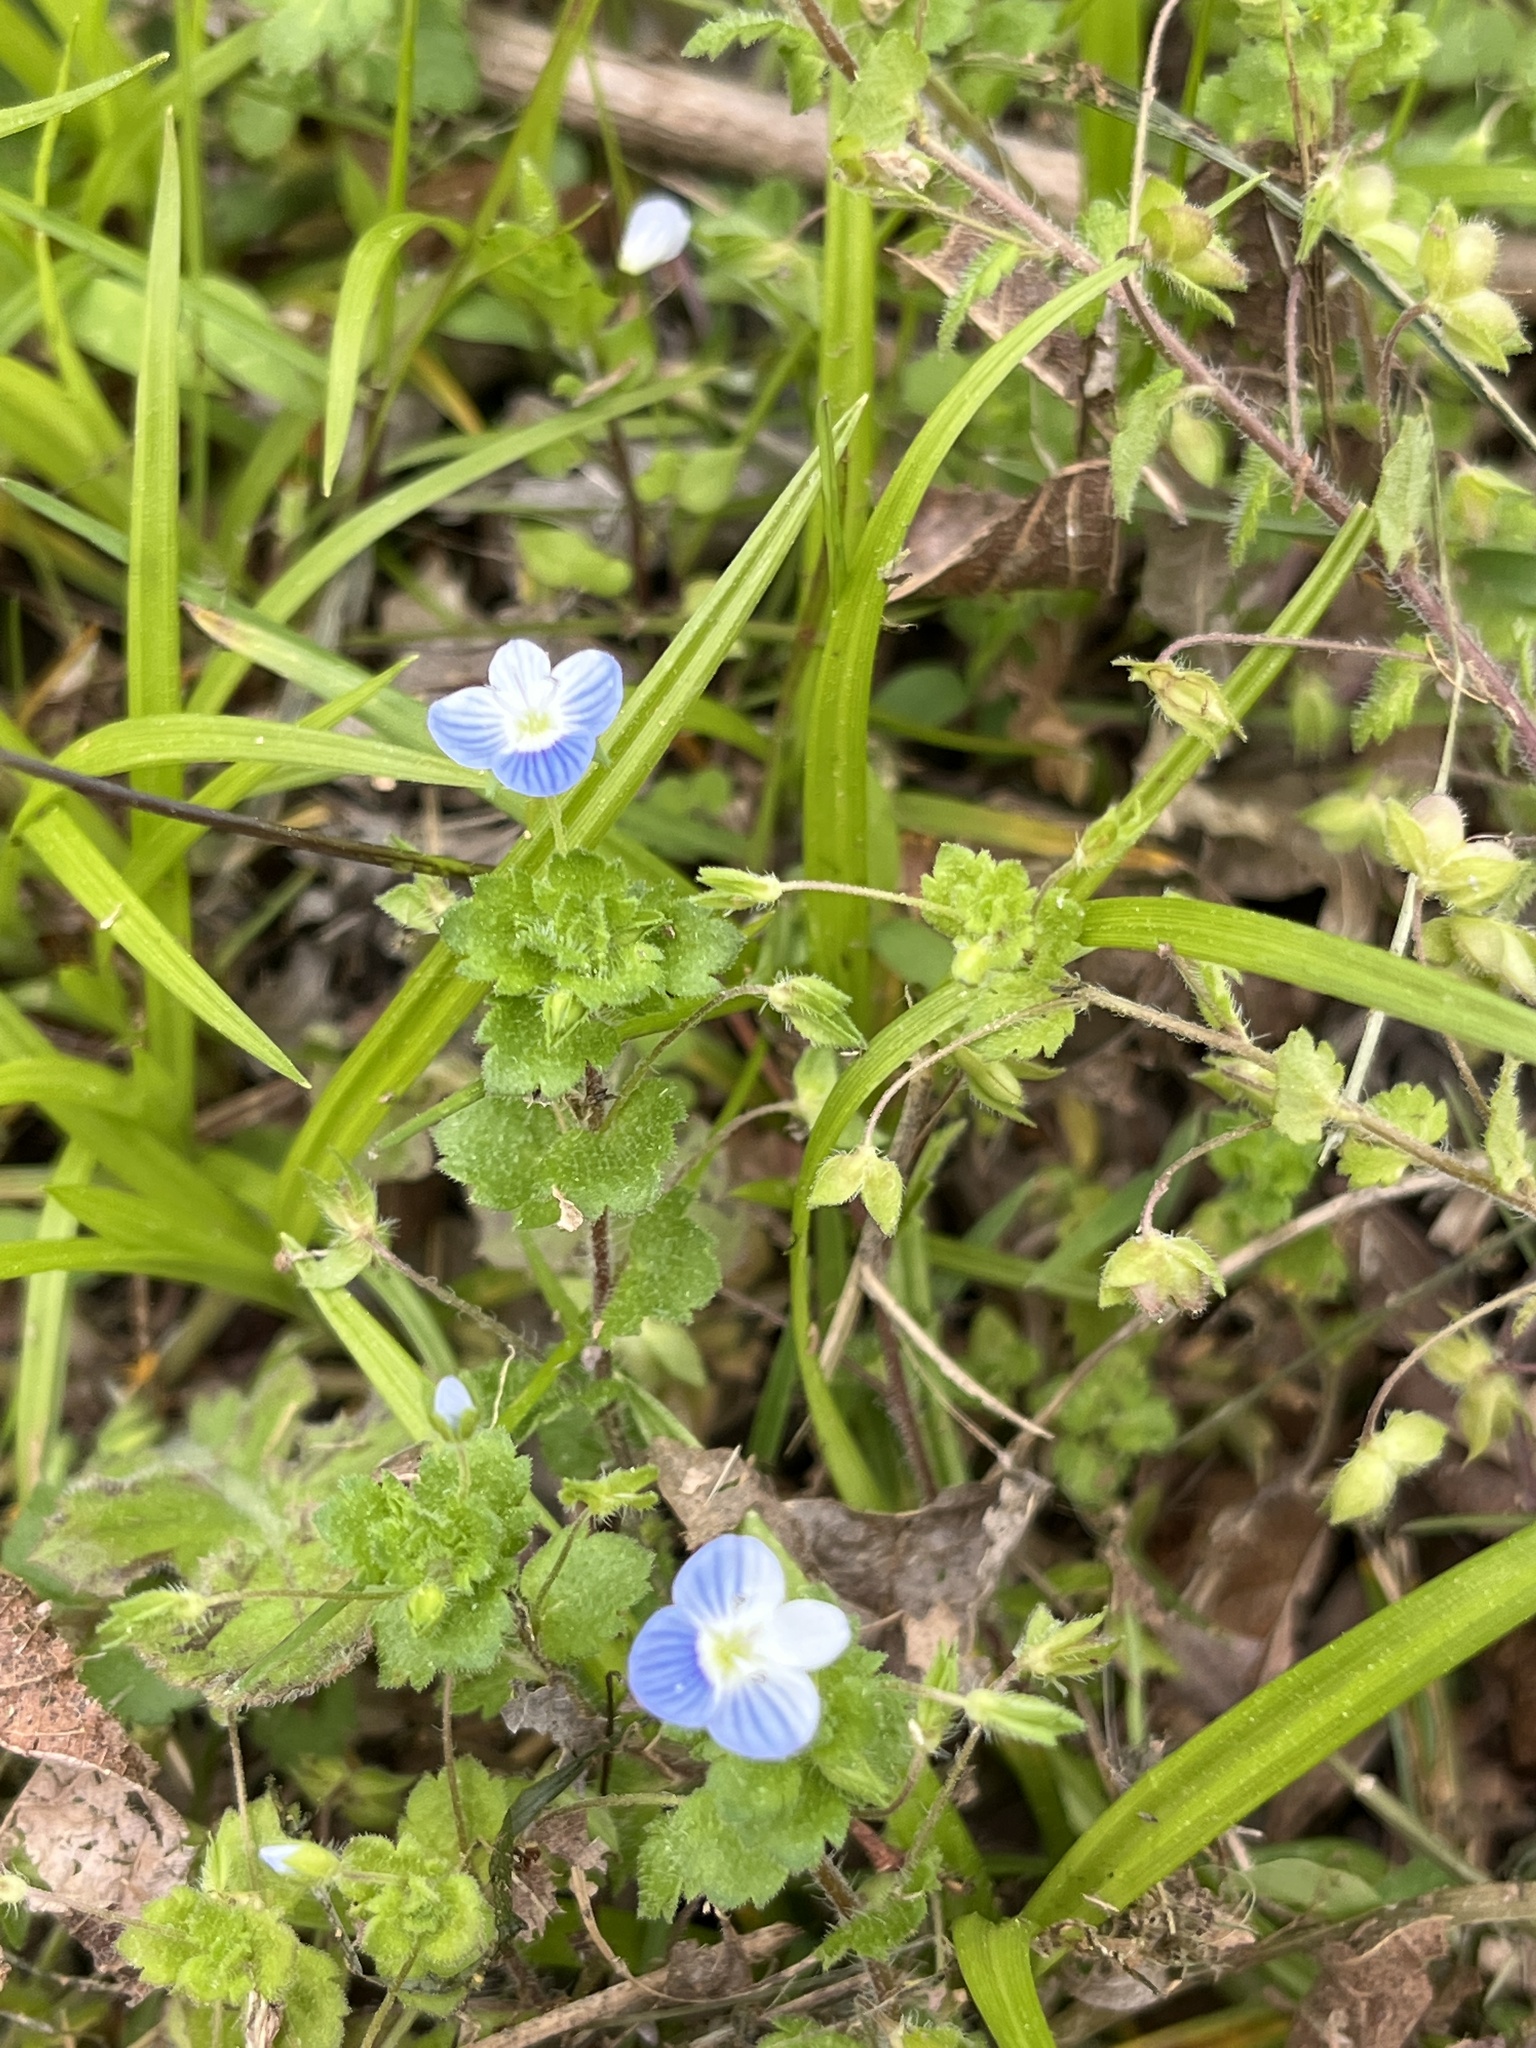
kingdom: Plantae
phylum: Tracheophyta
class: Magnoliopsida
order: Lamiales
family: Plantaginaceae
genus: Veronica
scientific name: Veronica persica
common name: Common field-speedwell
